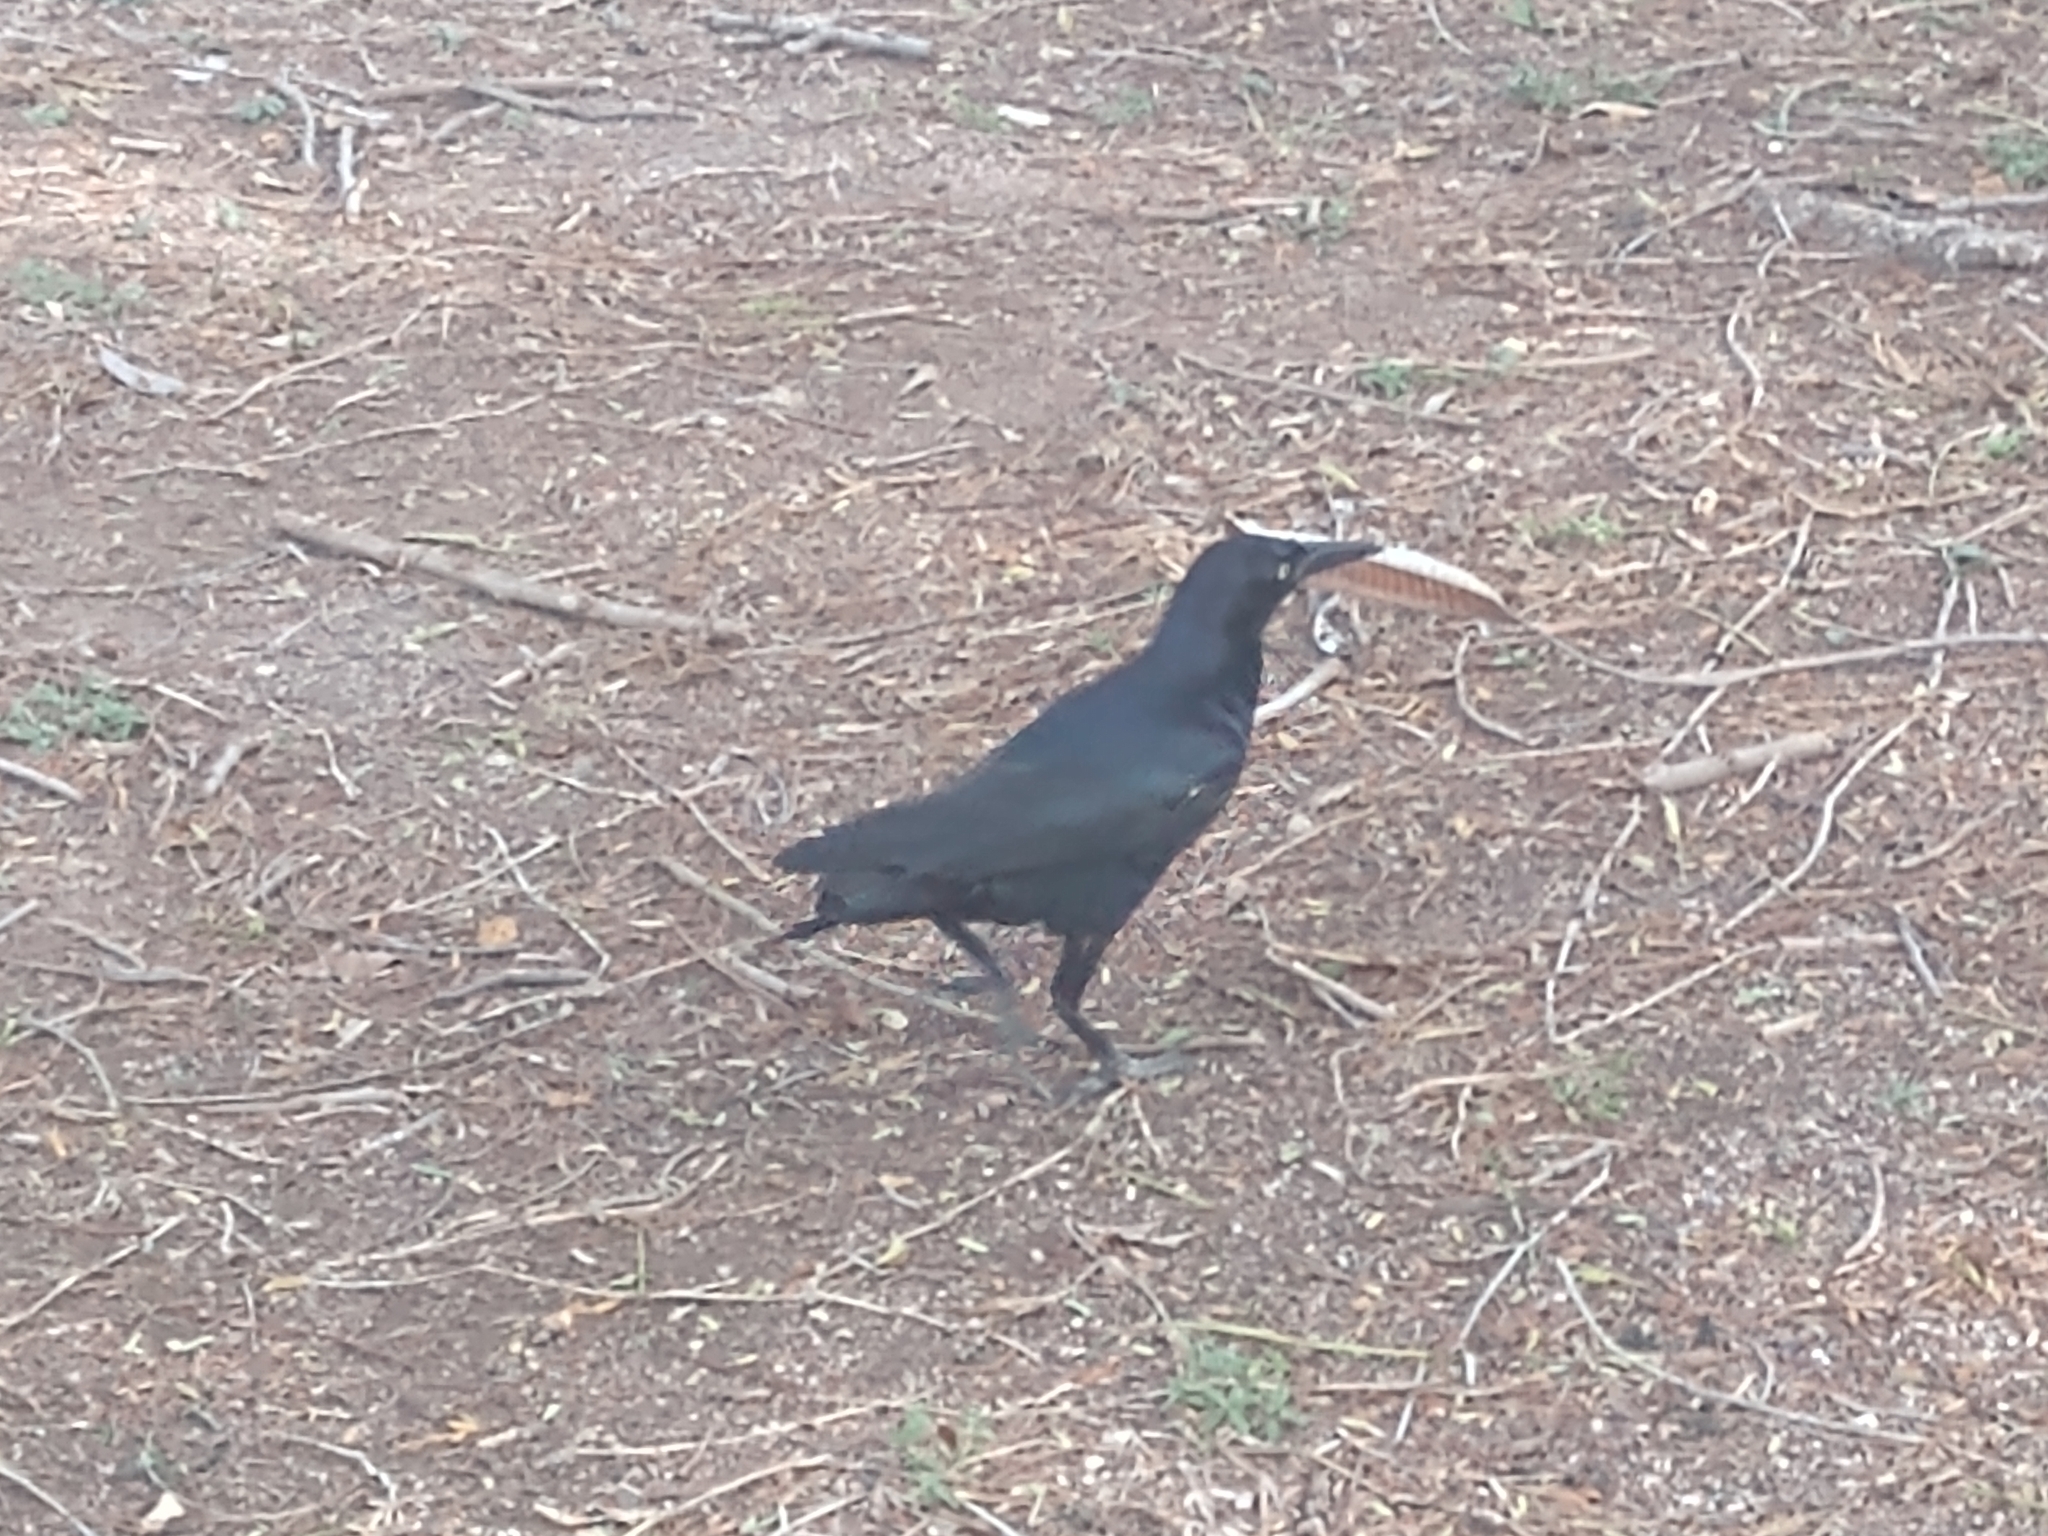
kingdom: Animalia
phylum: Chordata
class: Aves
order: Passeriformes
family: Icteridae
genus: Quiscalus
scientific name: Quiscalus mexicanus
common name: Great-tailed grackle
